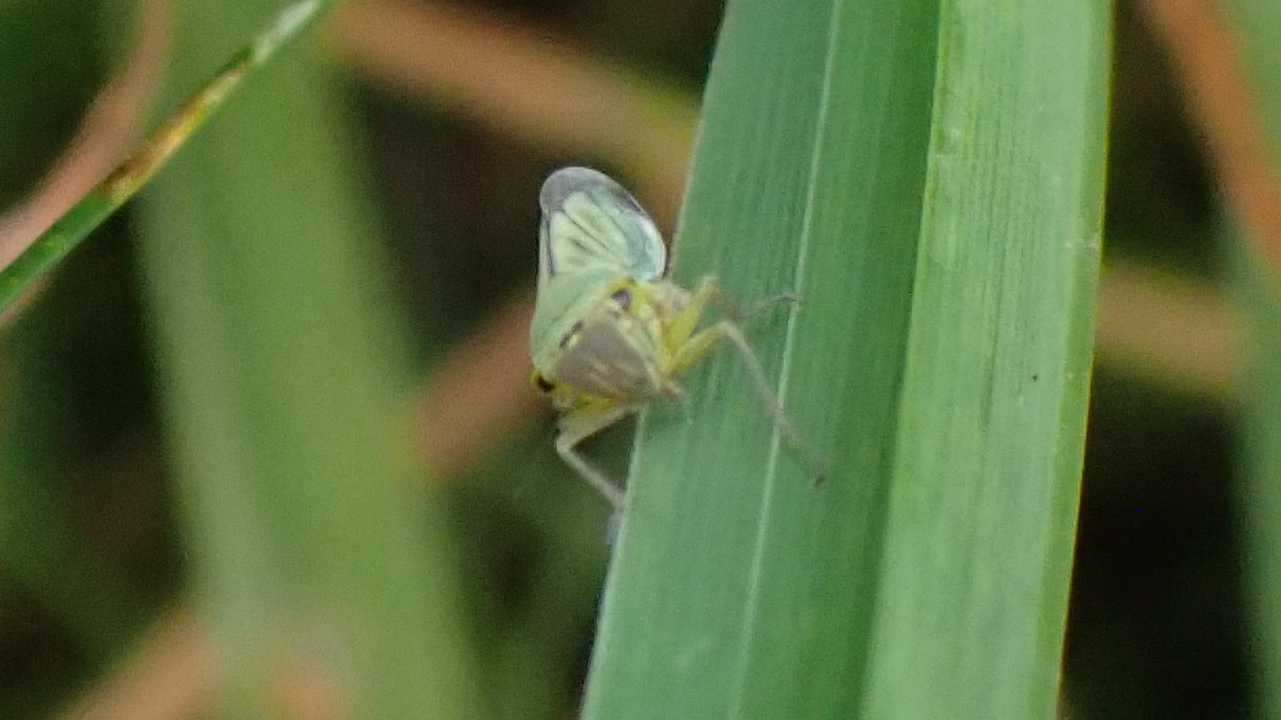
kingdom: Animalia
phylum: Arthropoda
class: Insecta
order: Hemiptera
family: Cicadellidae
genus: Cicadella
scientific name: Cicadella viridis
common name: Leafhopper
